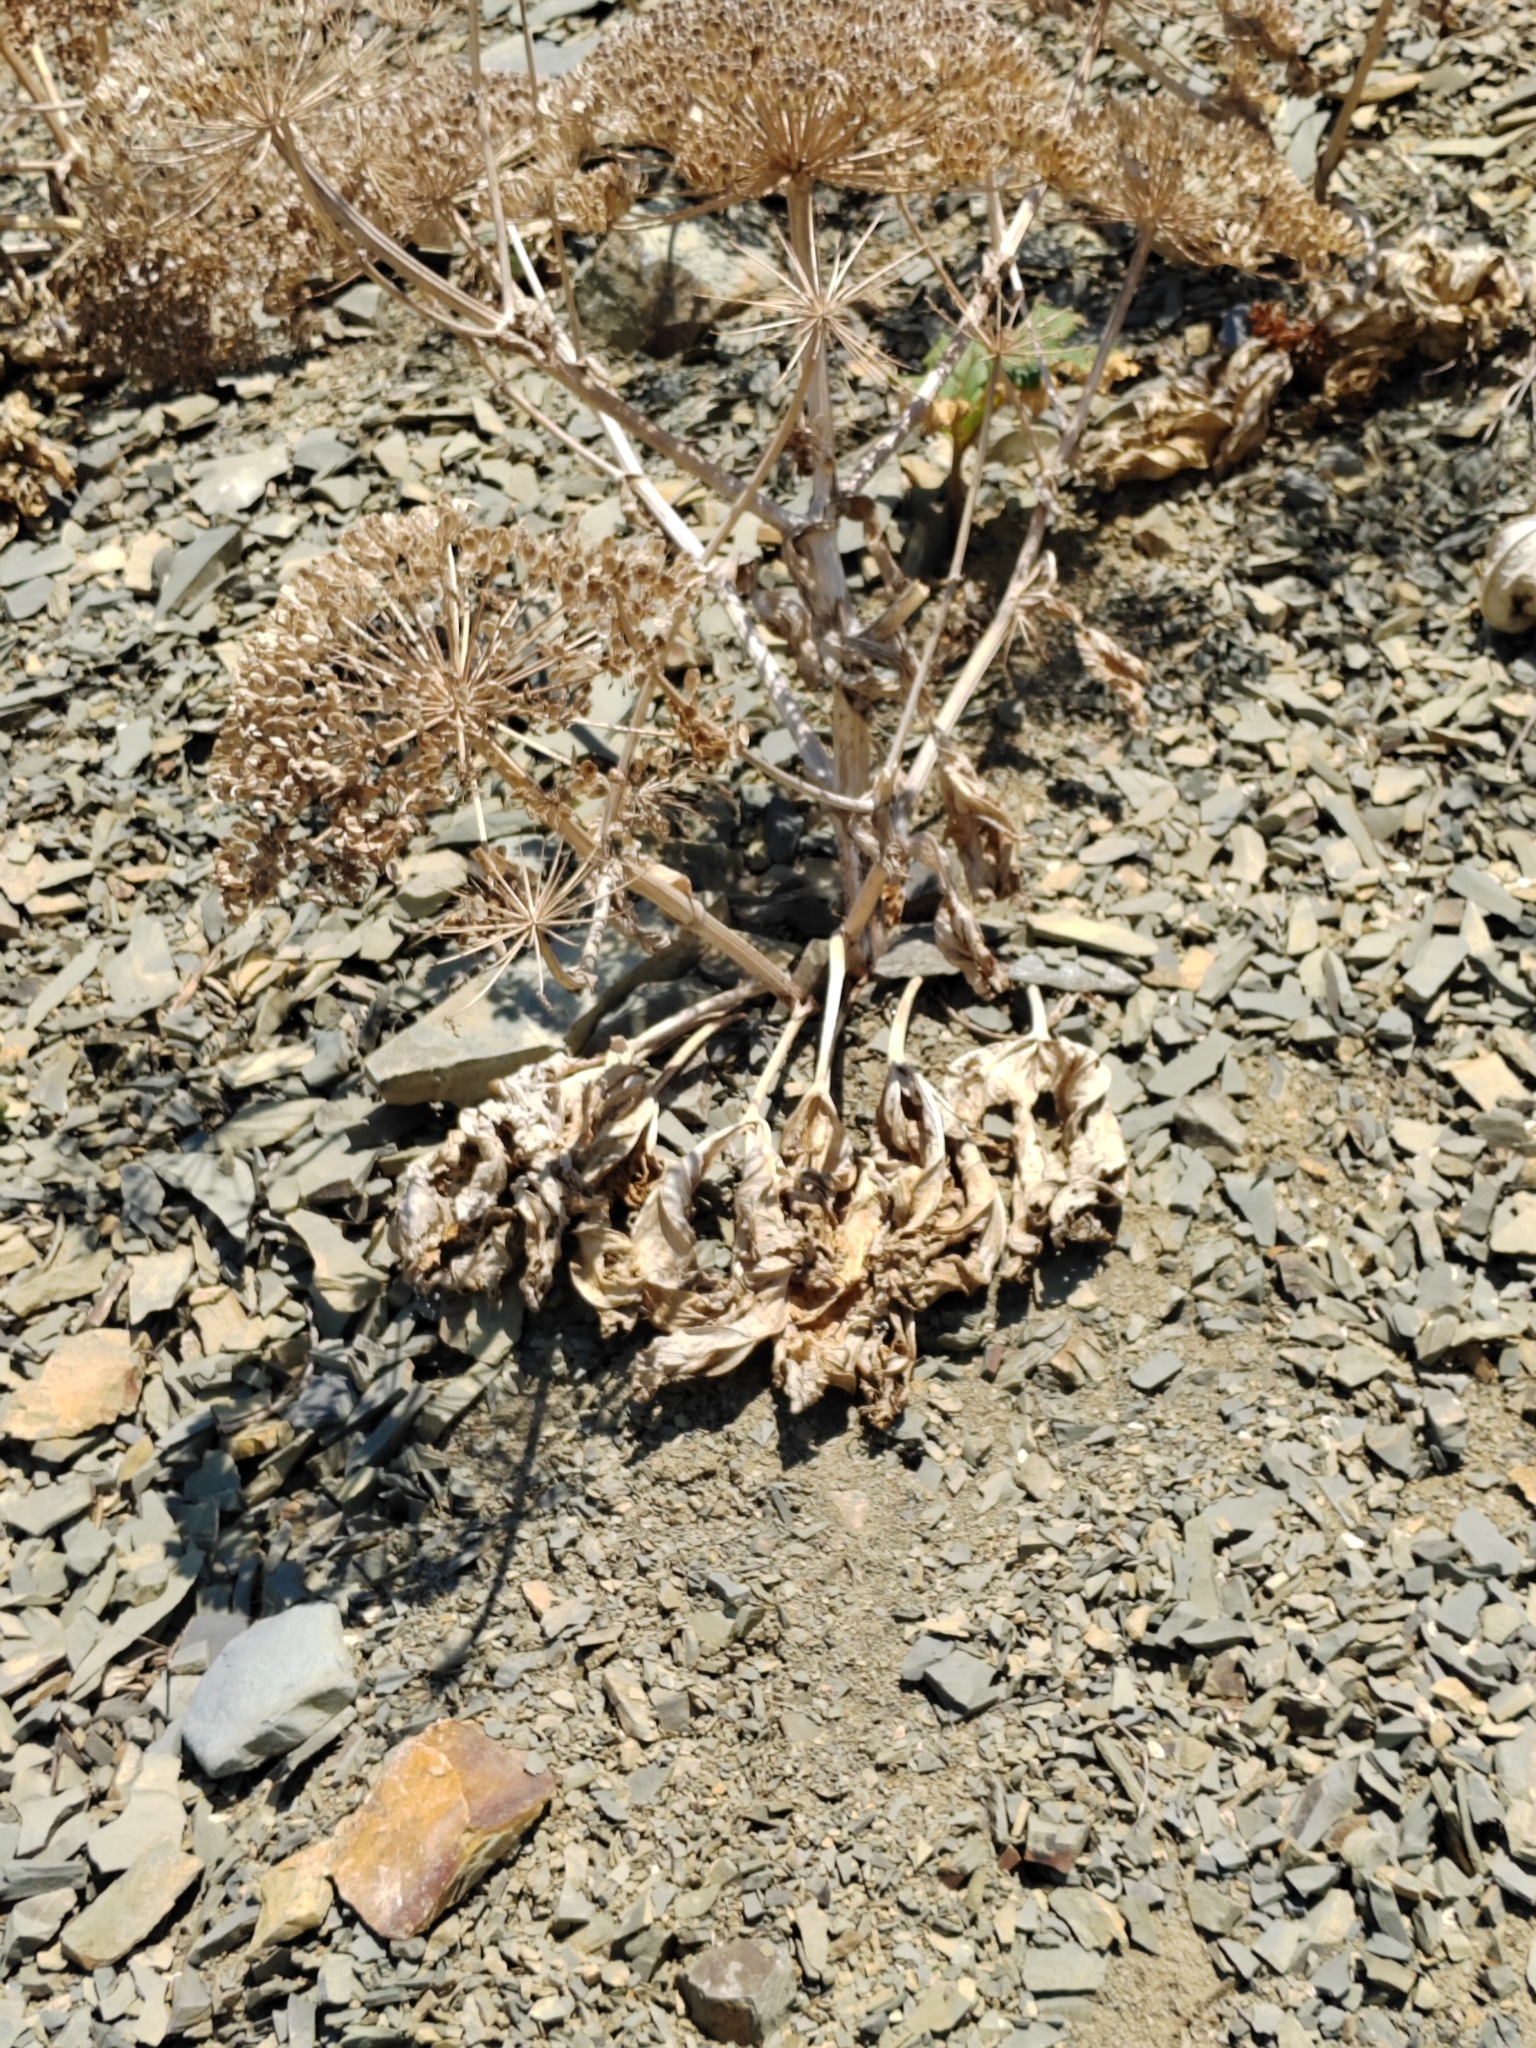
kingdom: Plantae
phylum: Tracheophyta
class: Magnoliopsida
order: Apiales
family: Apiaceae
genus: Heracleum
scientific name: Heracleum stevenii
